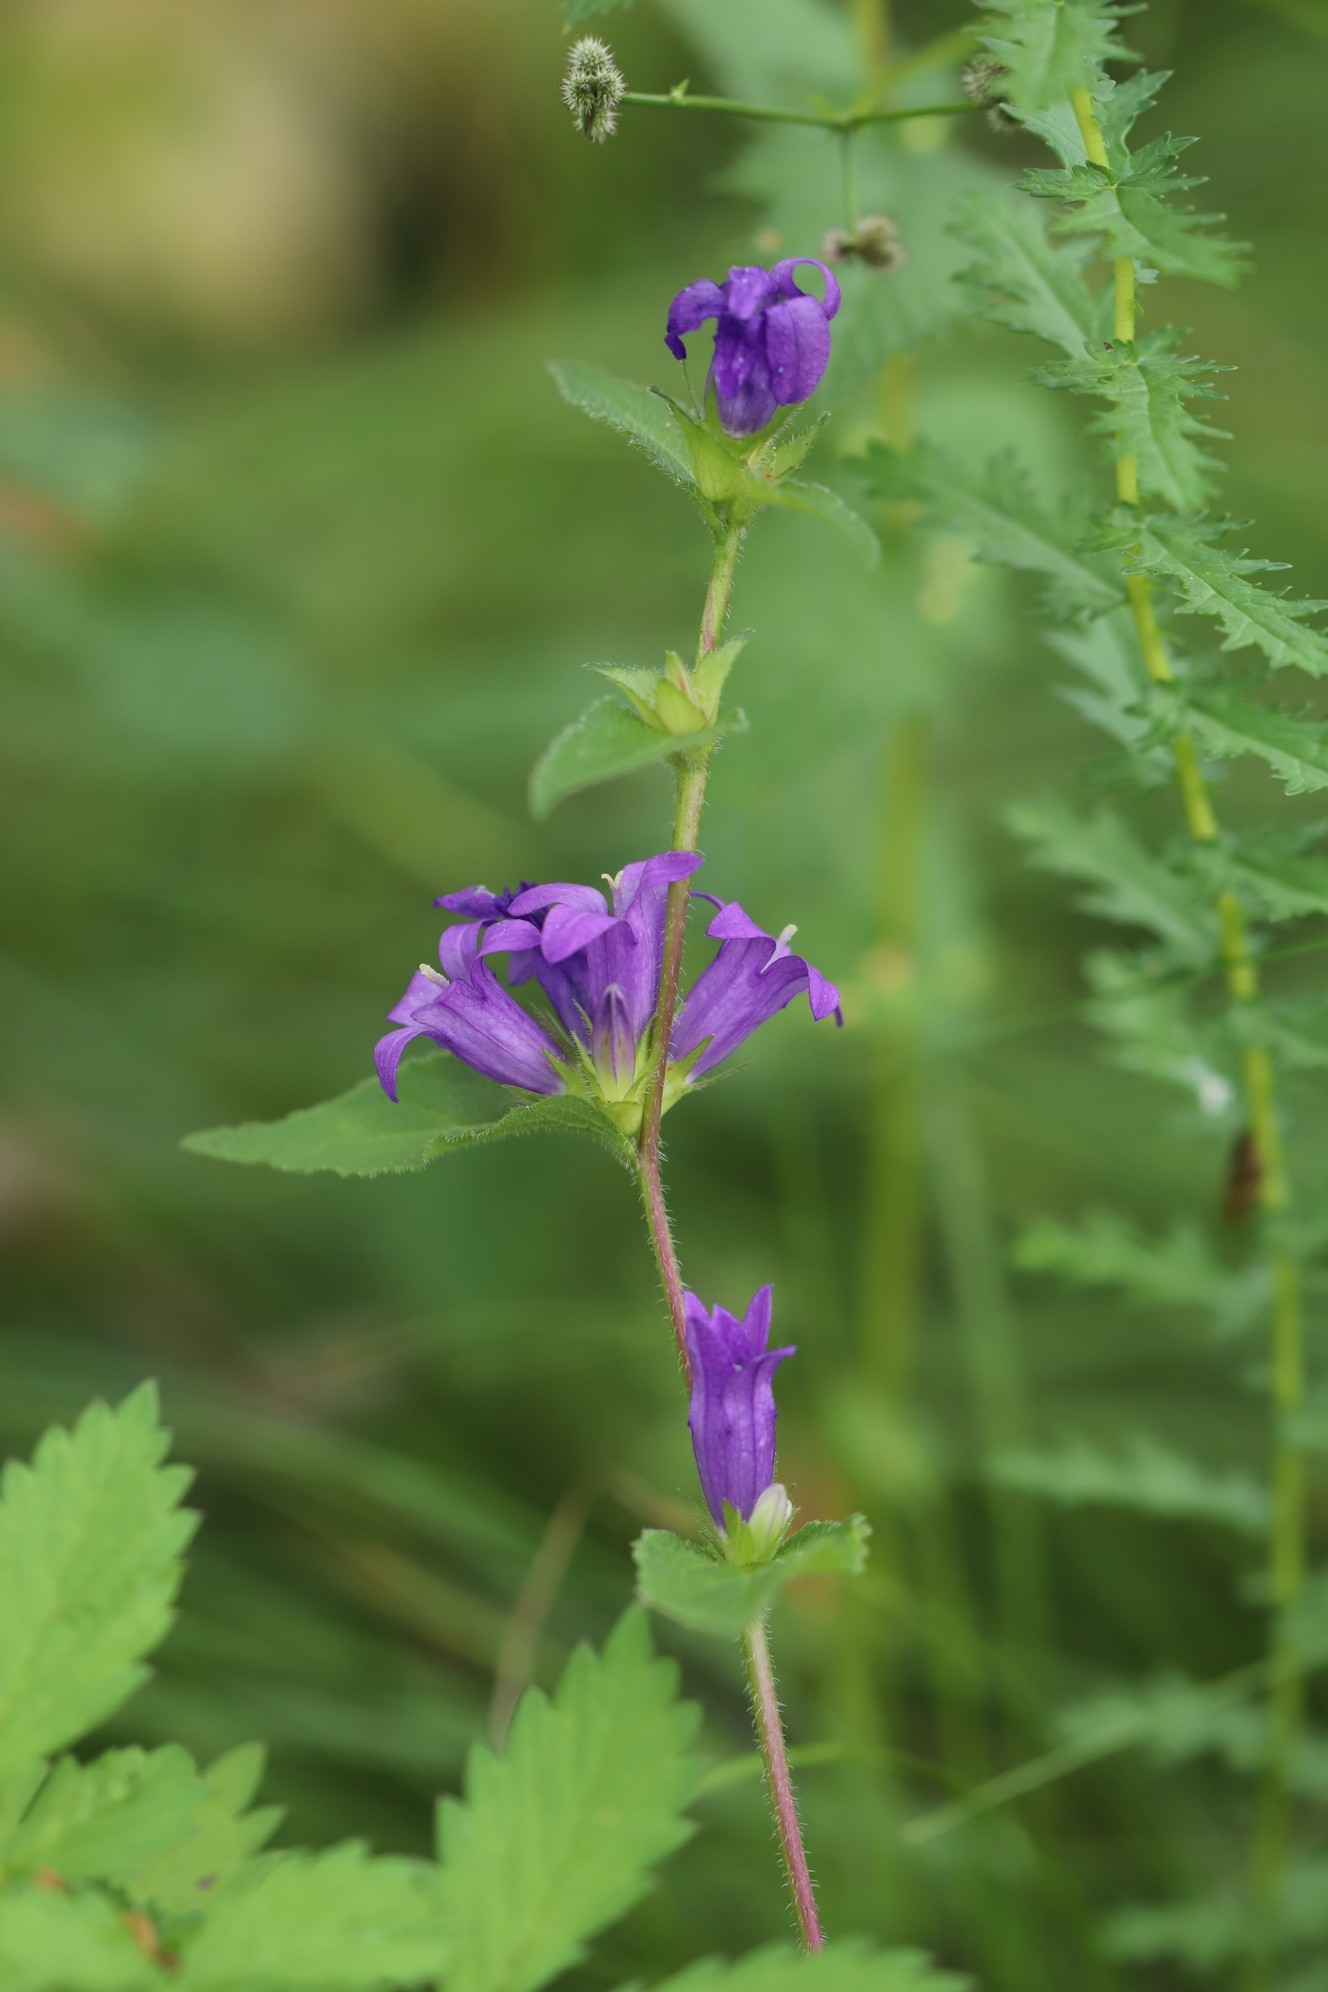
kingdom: Plantae
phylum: Tracheophyta
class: Magnoliopsida
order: Asterales
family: Campanulaceae
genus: Campanula
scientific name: Campanula glomerata
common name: Clustered bellflower
